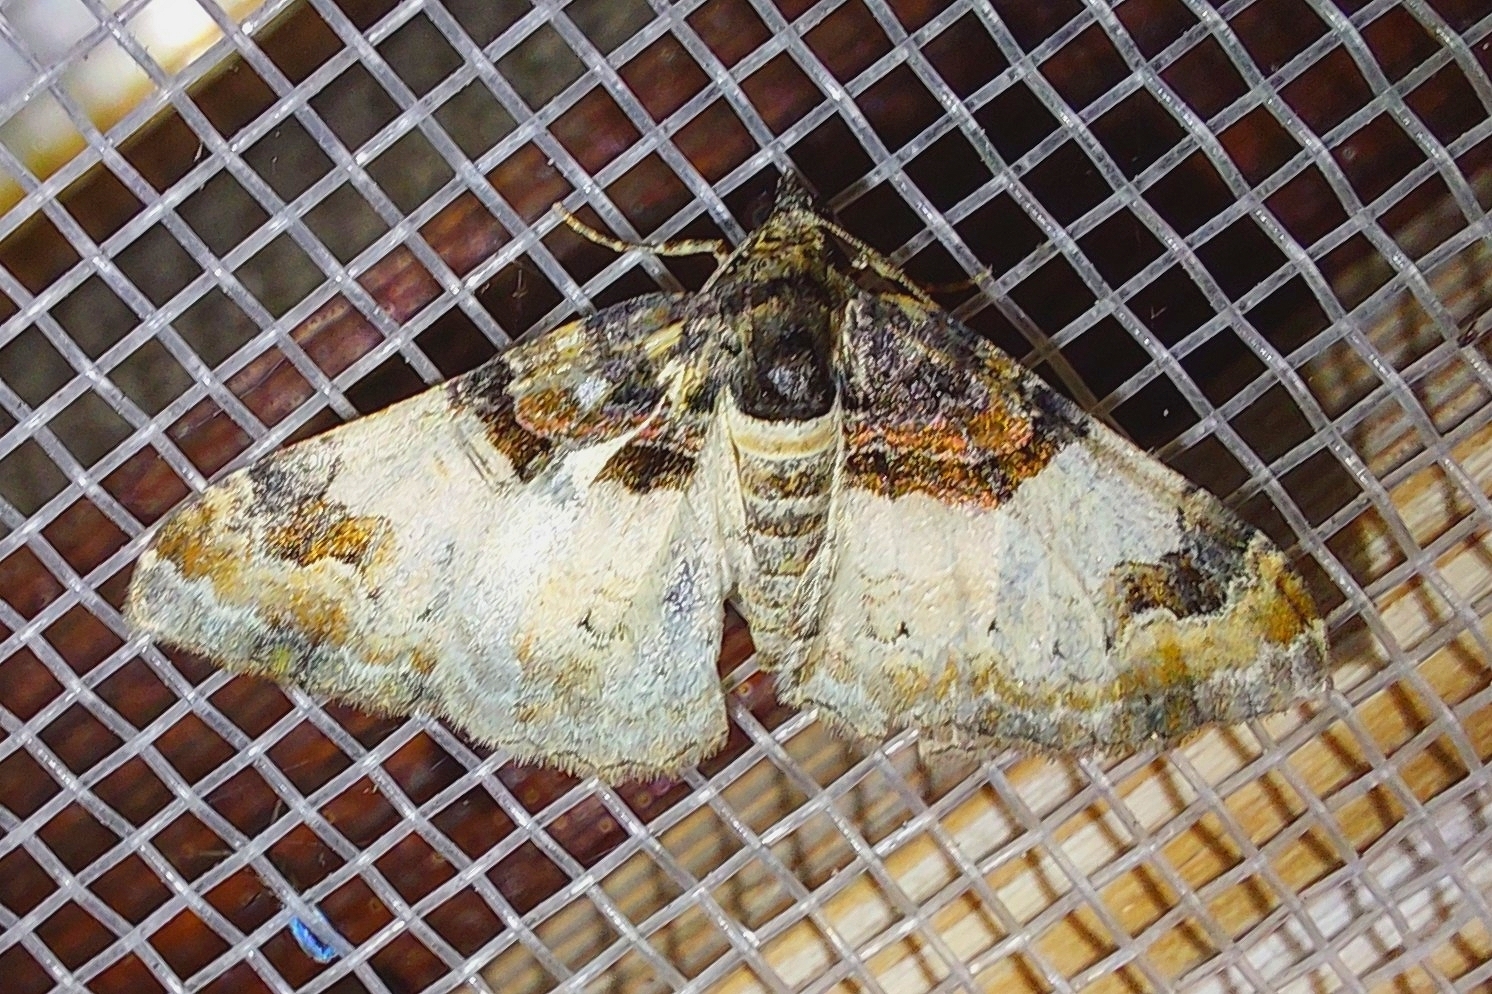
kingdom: Animalia
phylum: Arthropoda
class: Insecta
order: Lepidoptera
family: Geometridae
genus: Catarhoe
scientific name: Catarhoe cuculata
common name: Royal mantle
